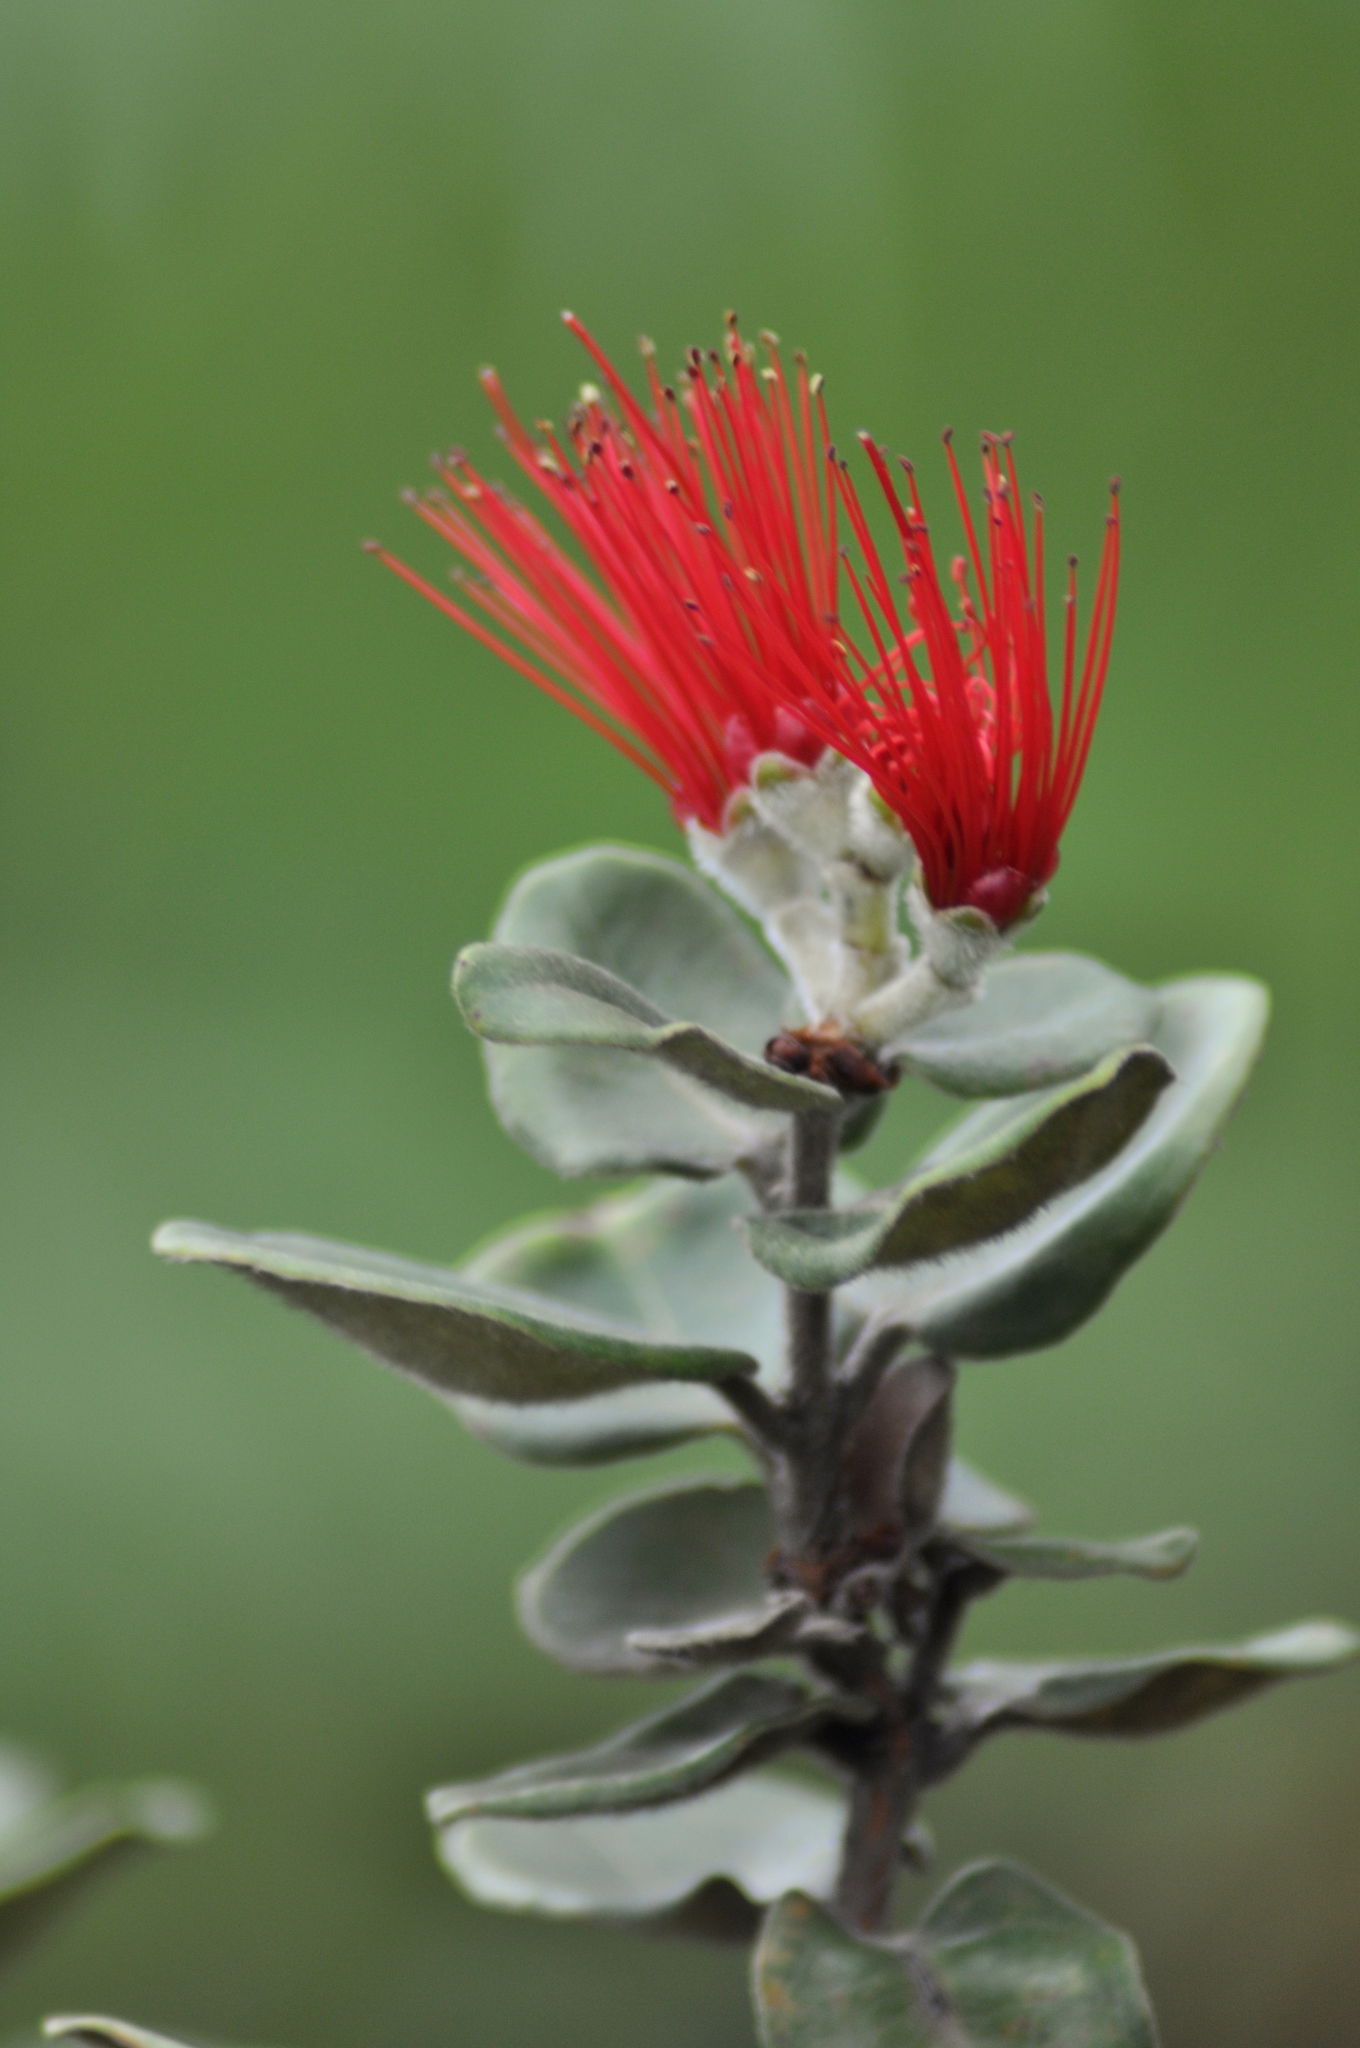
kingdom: Plantae
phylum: Tracheophyta
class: Magnoliopsida
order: Myrtales
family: Myrtaceae
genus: Metrosideros
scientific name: Metrosideros polymorpha
